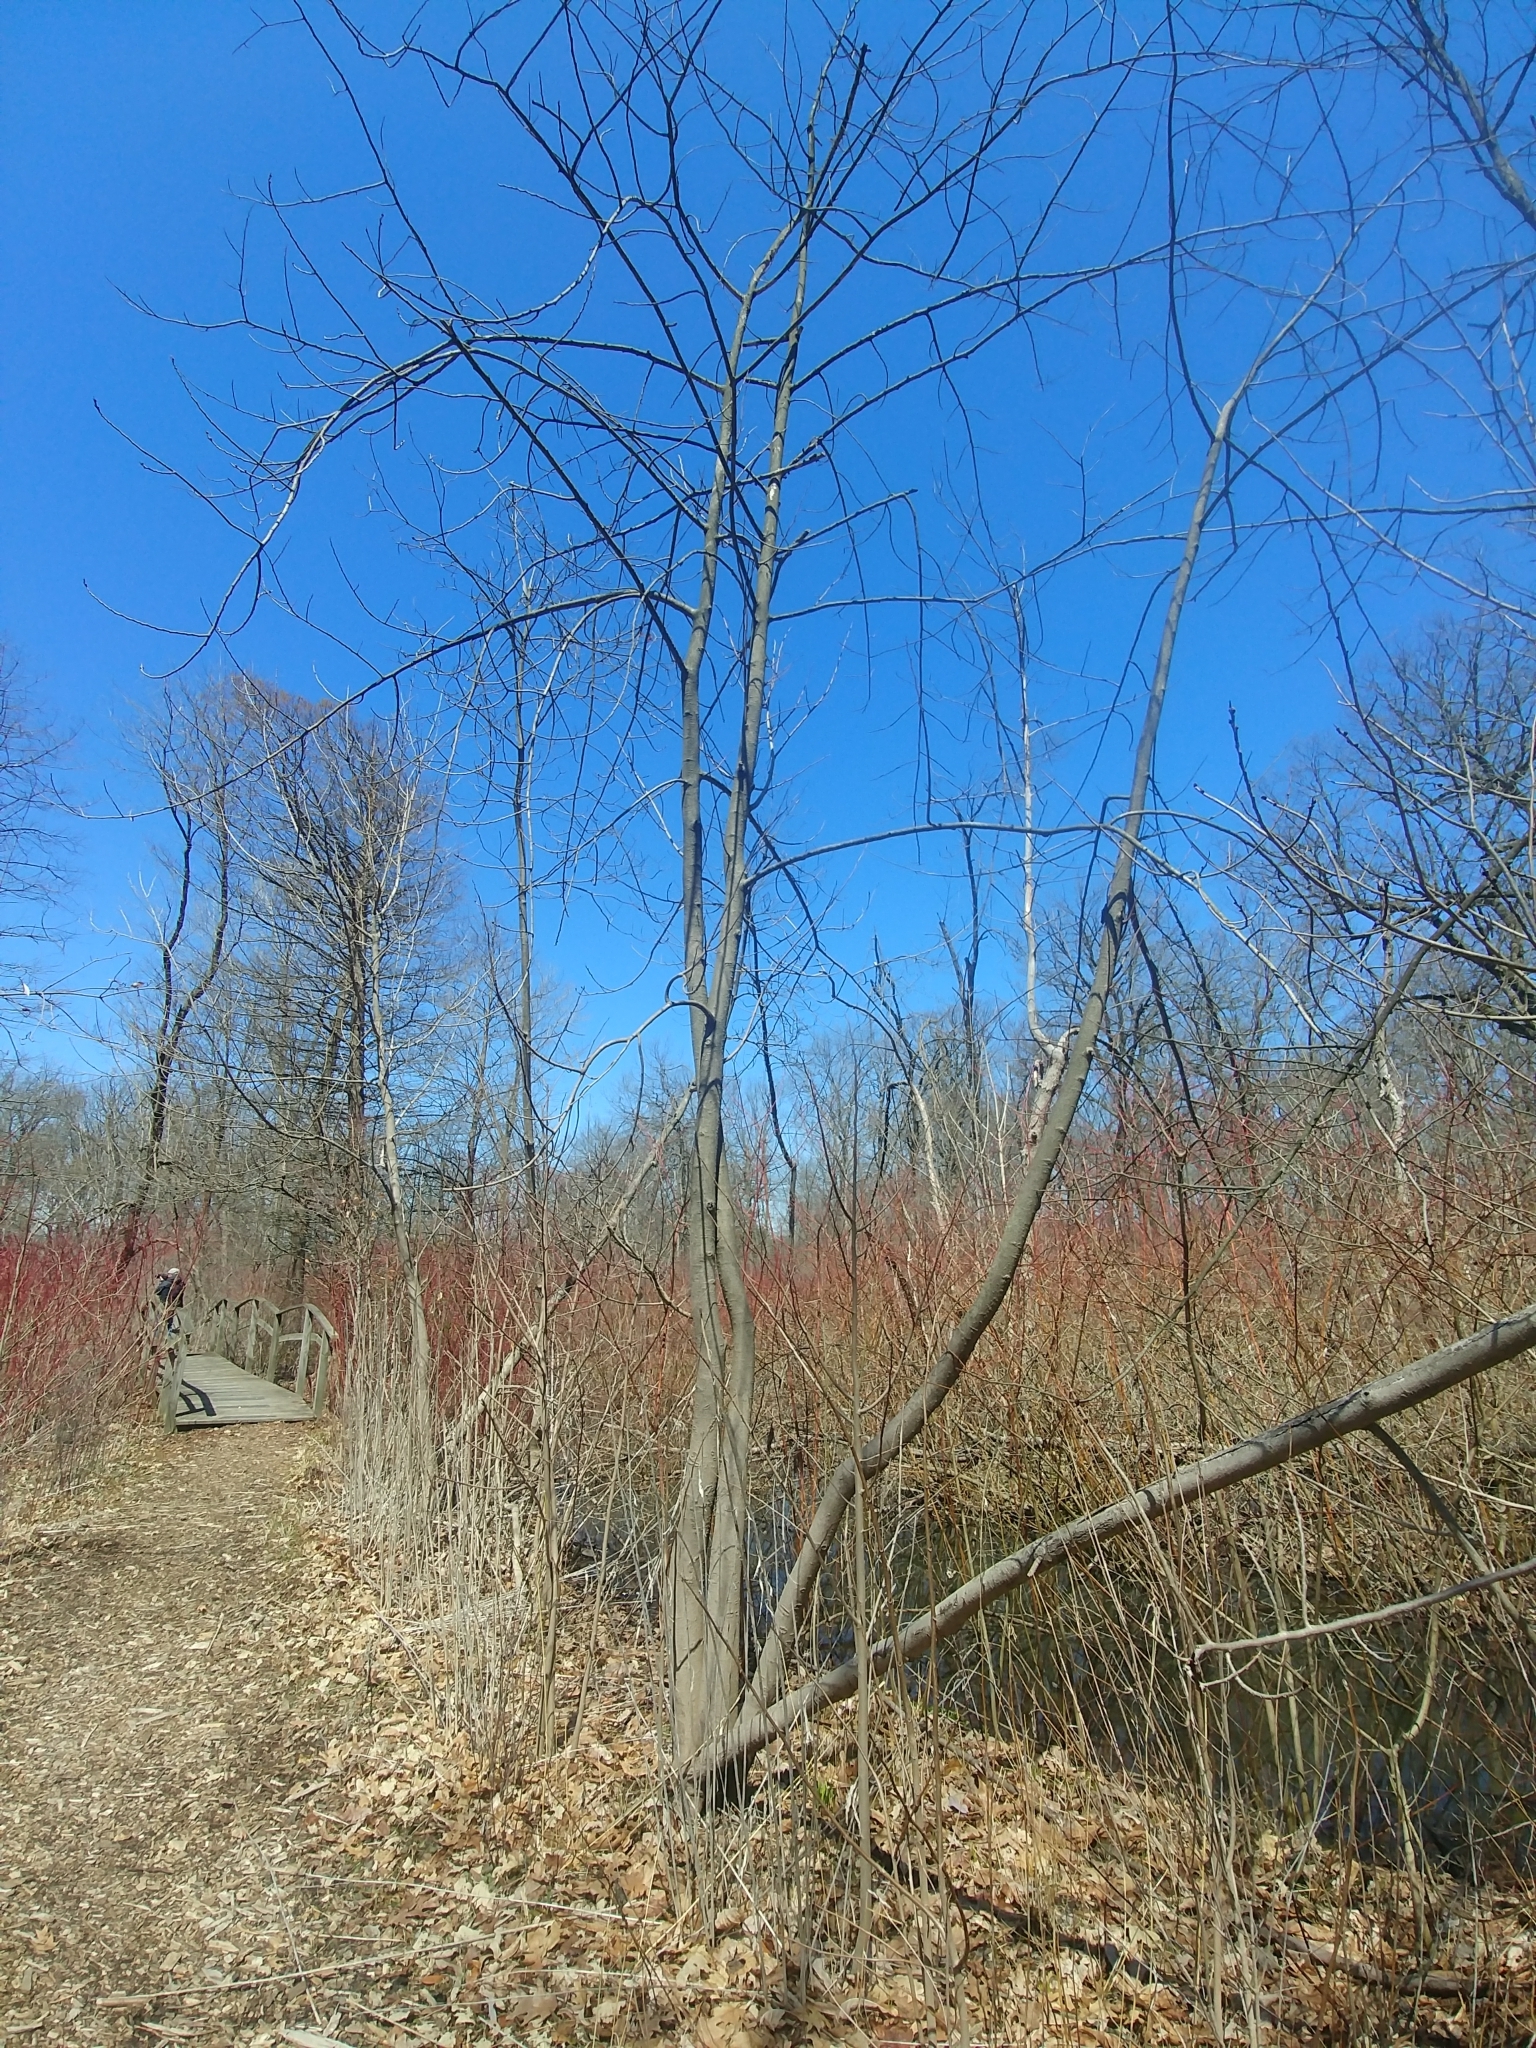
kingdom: Plantae
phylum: Tracheophyta
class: Magnoliopsida
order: Magnoliales
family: Annonaceae
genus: Asimina
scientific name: Asimina triloba
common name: Dog-banana
